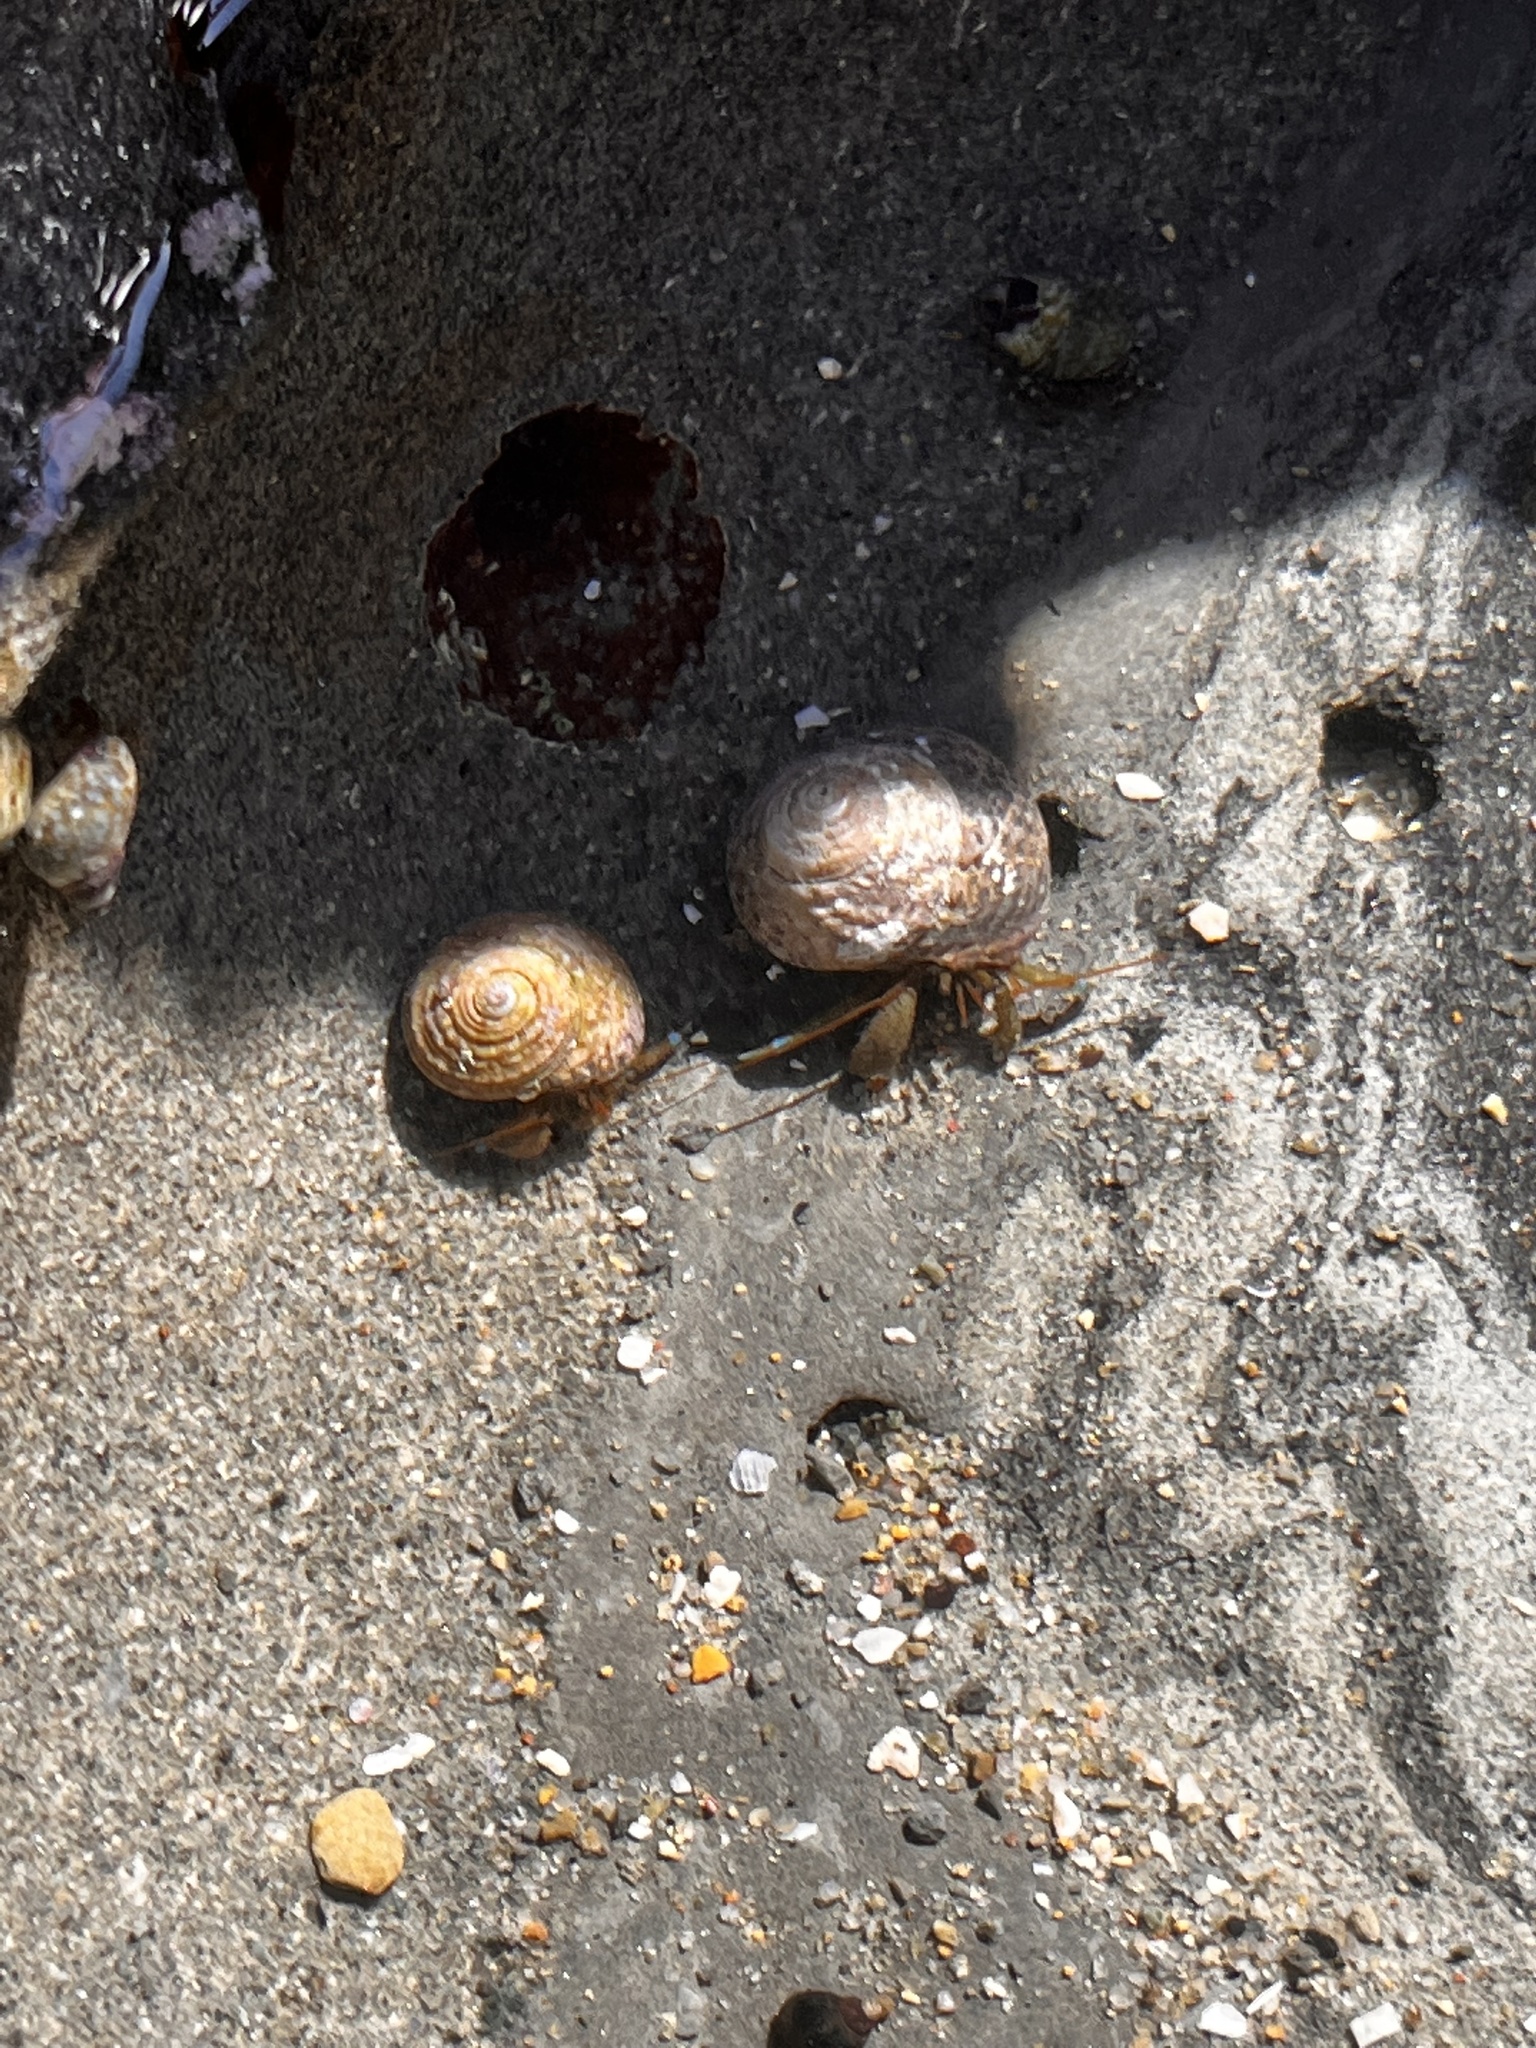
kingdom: Animalia
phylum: Arthropoda
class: Malacostraca
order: Decapoda
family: Paguridae
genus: Pagurus
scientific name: Pagurus samuelis
